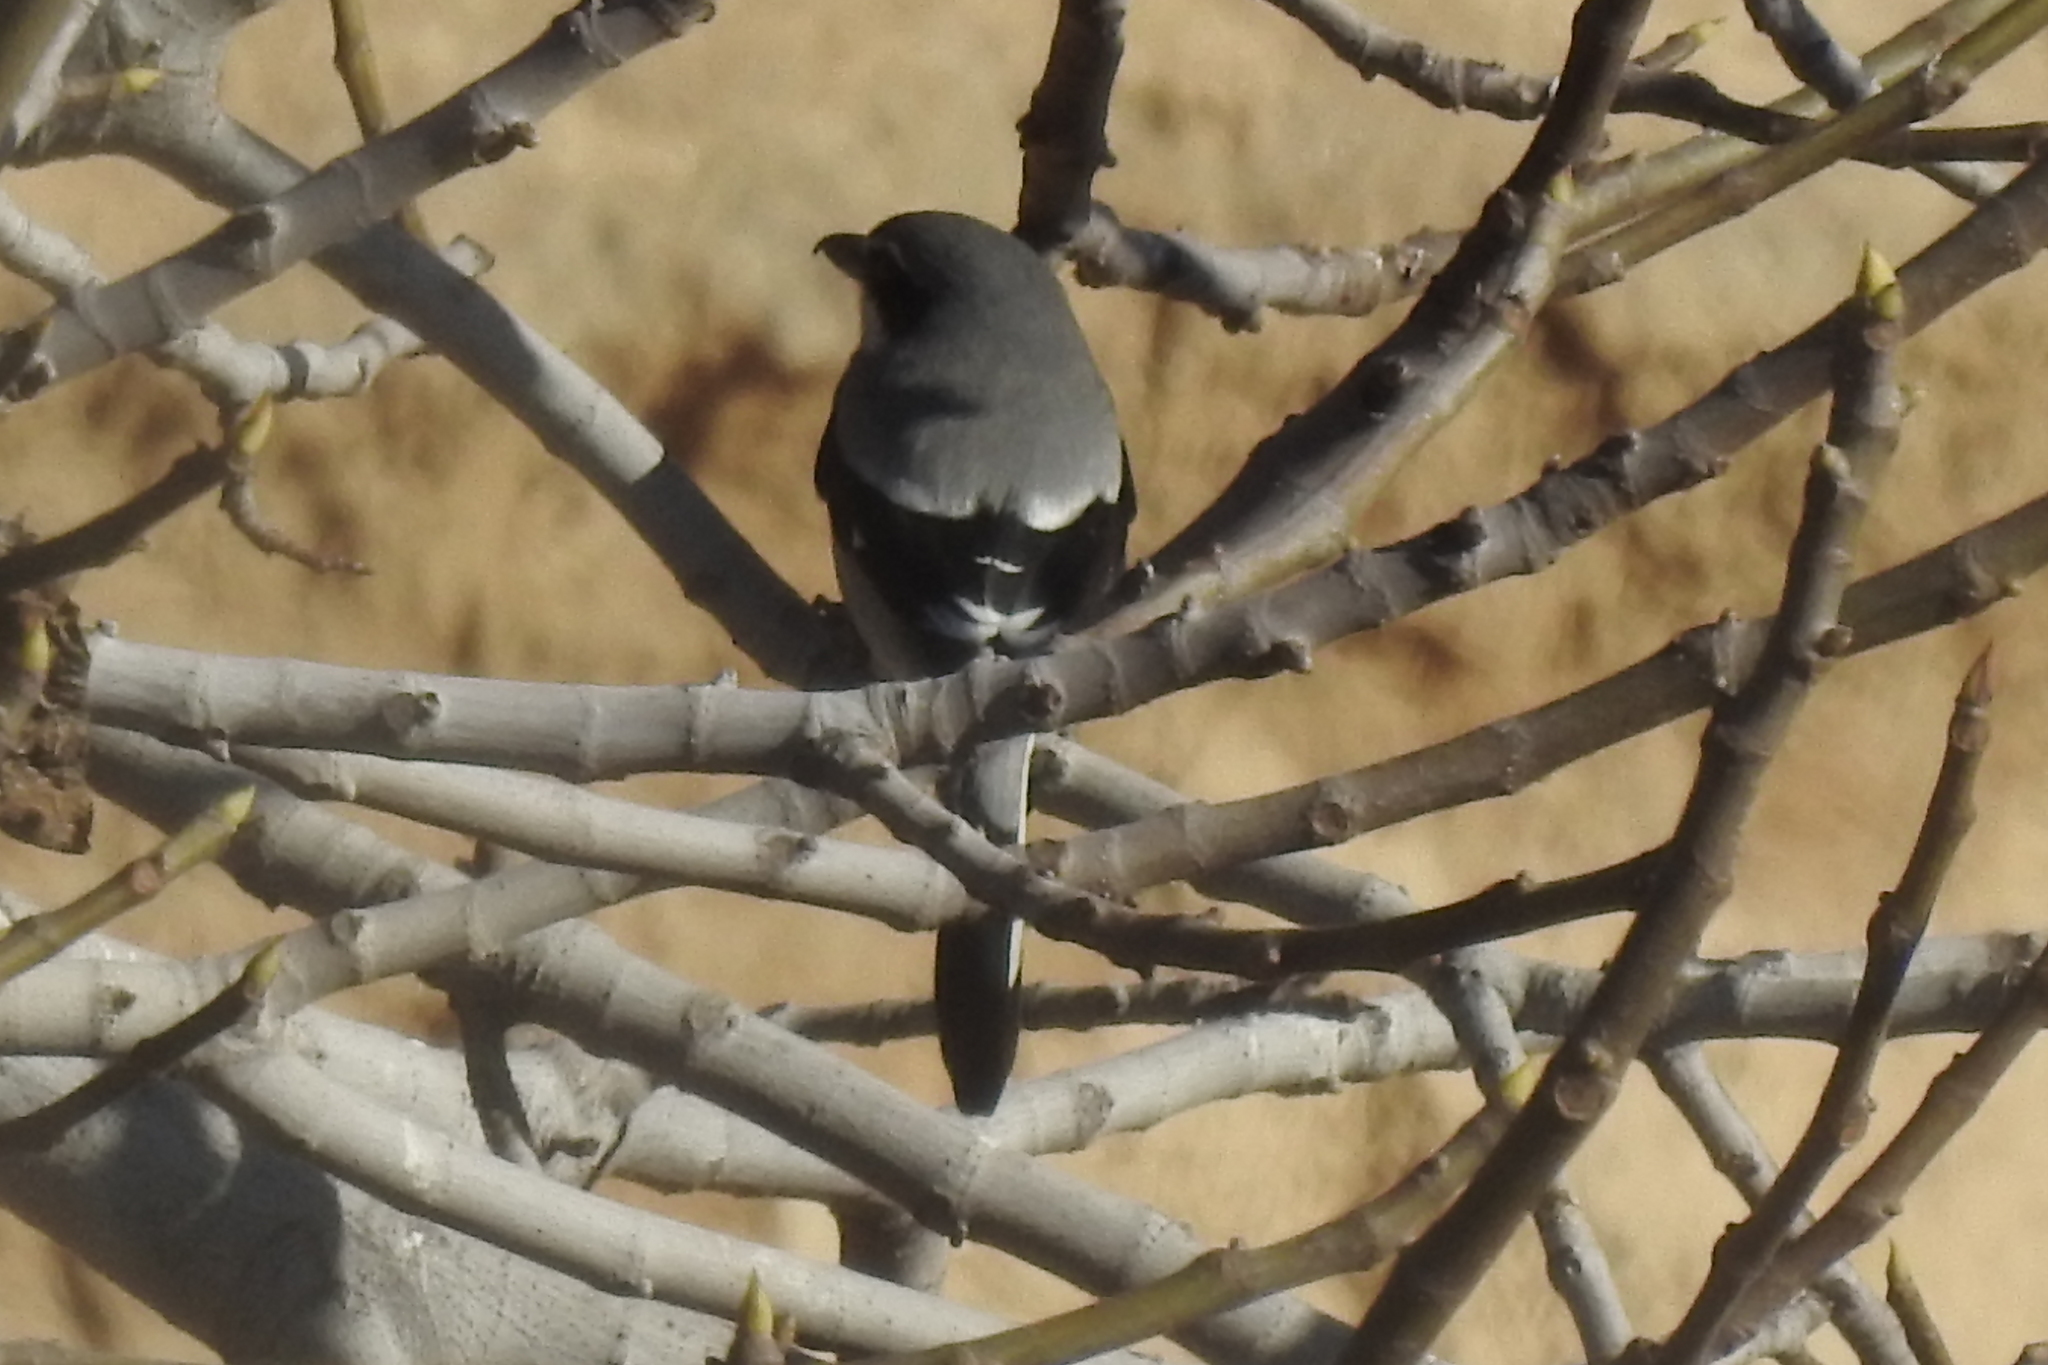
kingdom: Animalia
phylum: Chordata
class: Aves
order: Passeriformes
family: Laniidae
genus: Lanius
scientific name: Lanius meridionalis
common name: Iberian grey shrike
